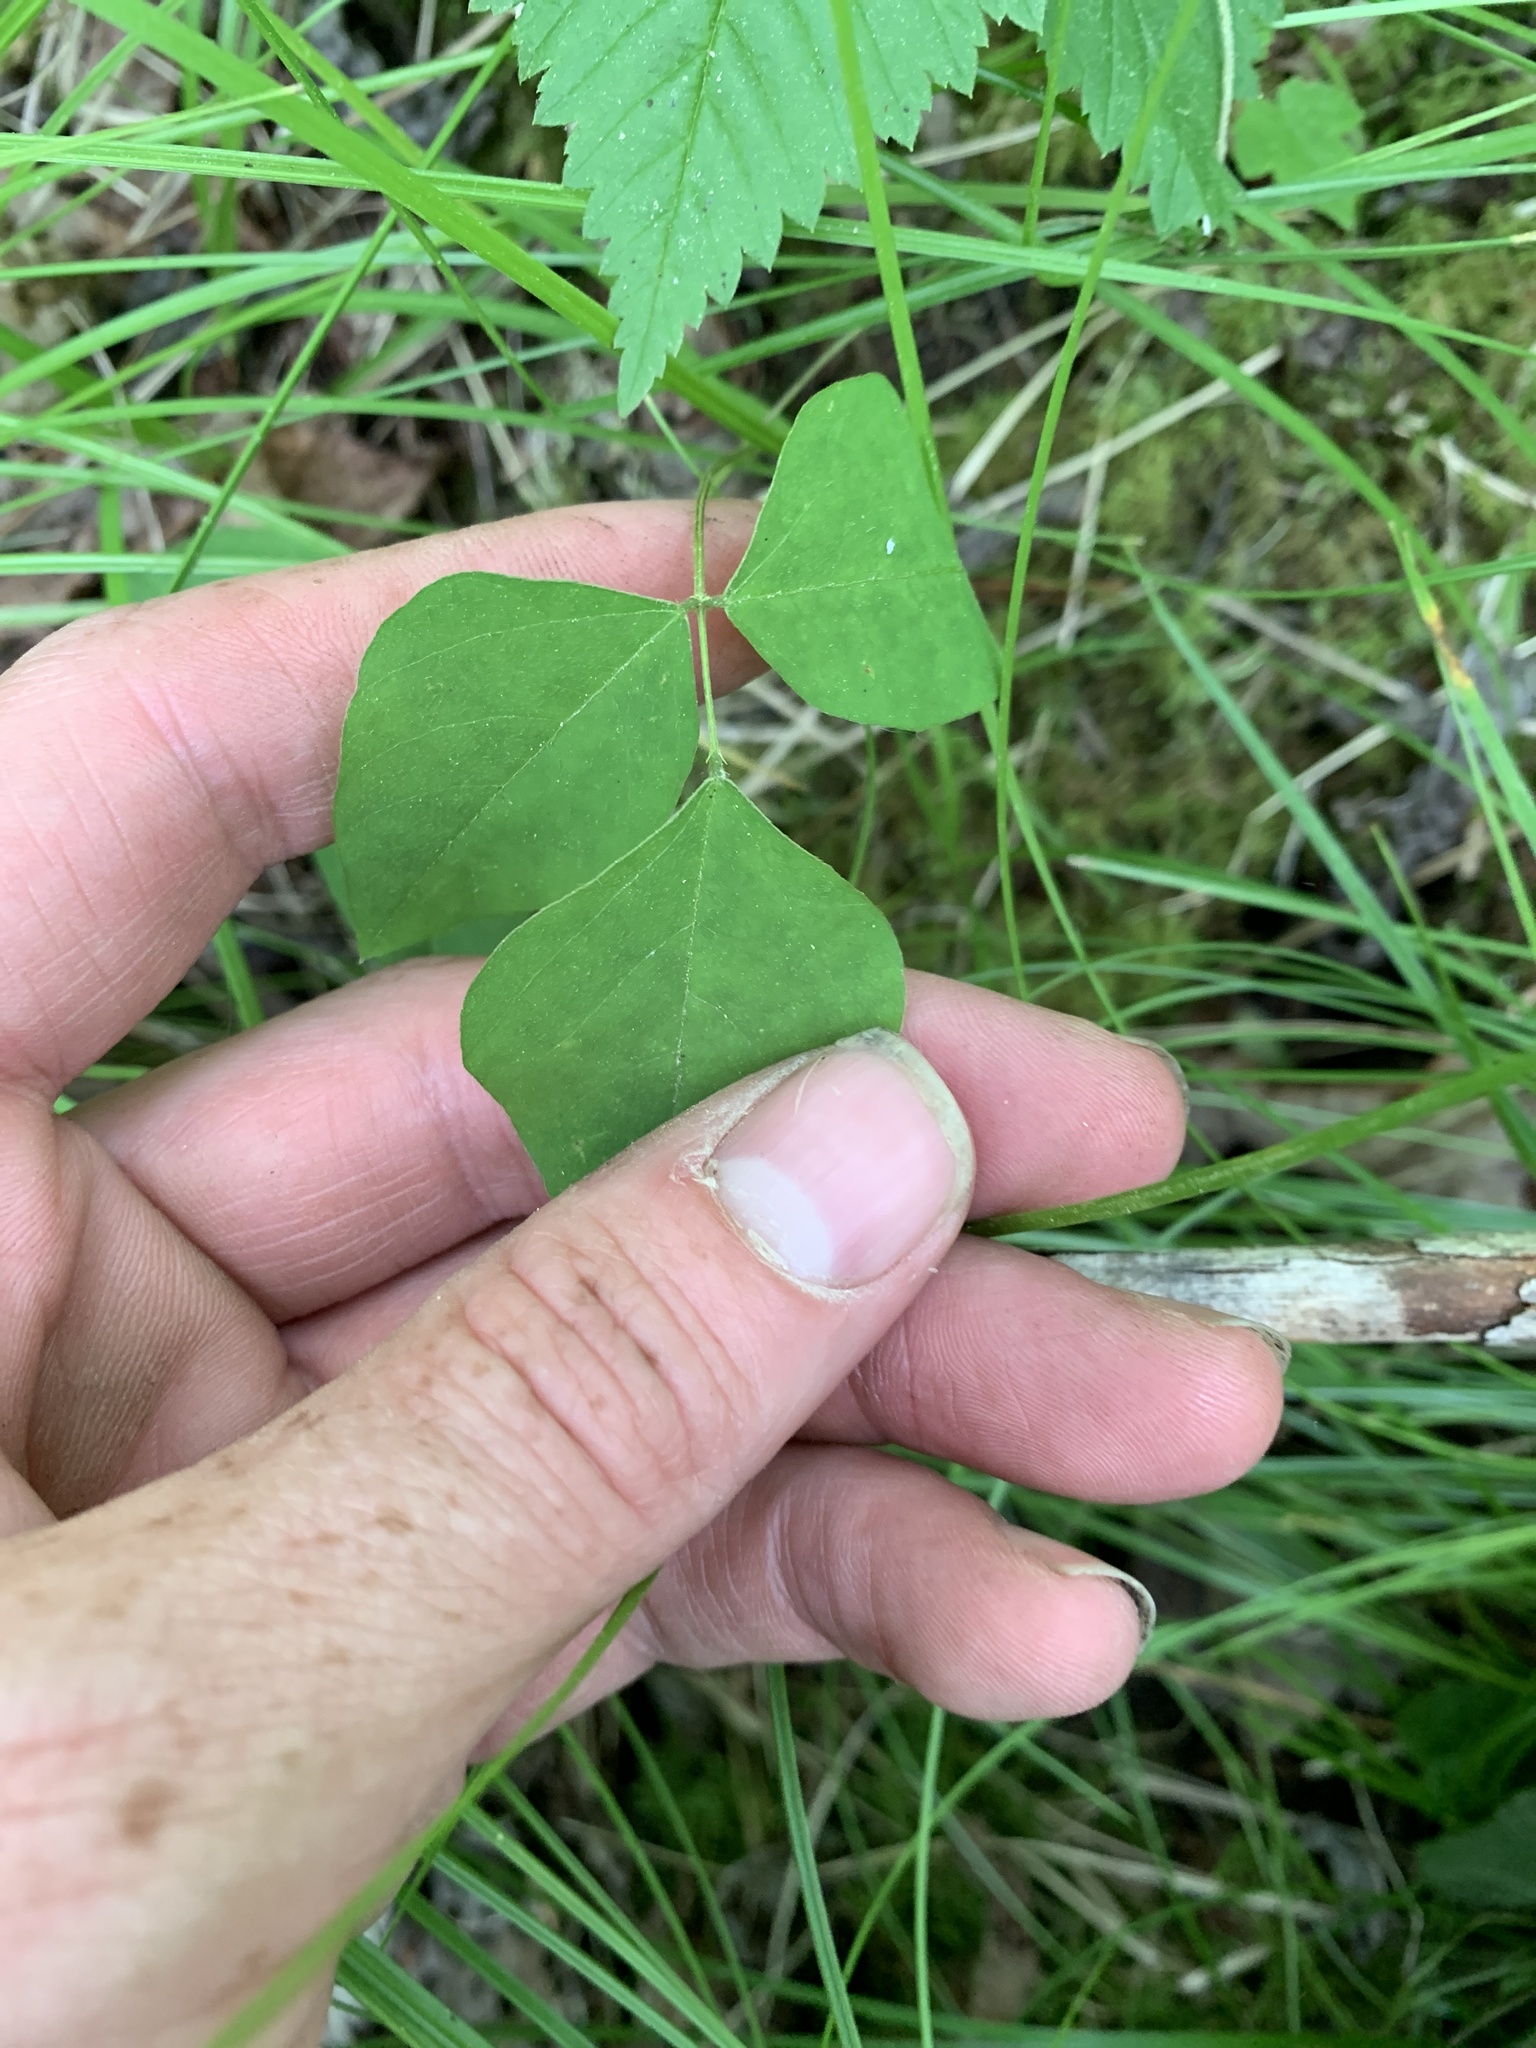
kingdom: Plantae
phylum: Tracheophyta
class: Magnoliopsida
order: Fabales
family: Fabaceae
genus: Amphicarpaea
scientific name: Amphicarpaea bracteata
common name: American hog peanut
